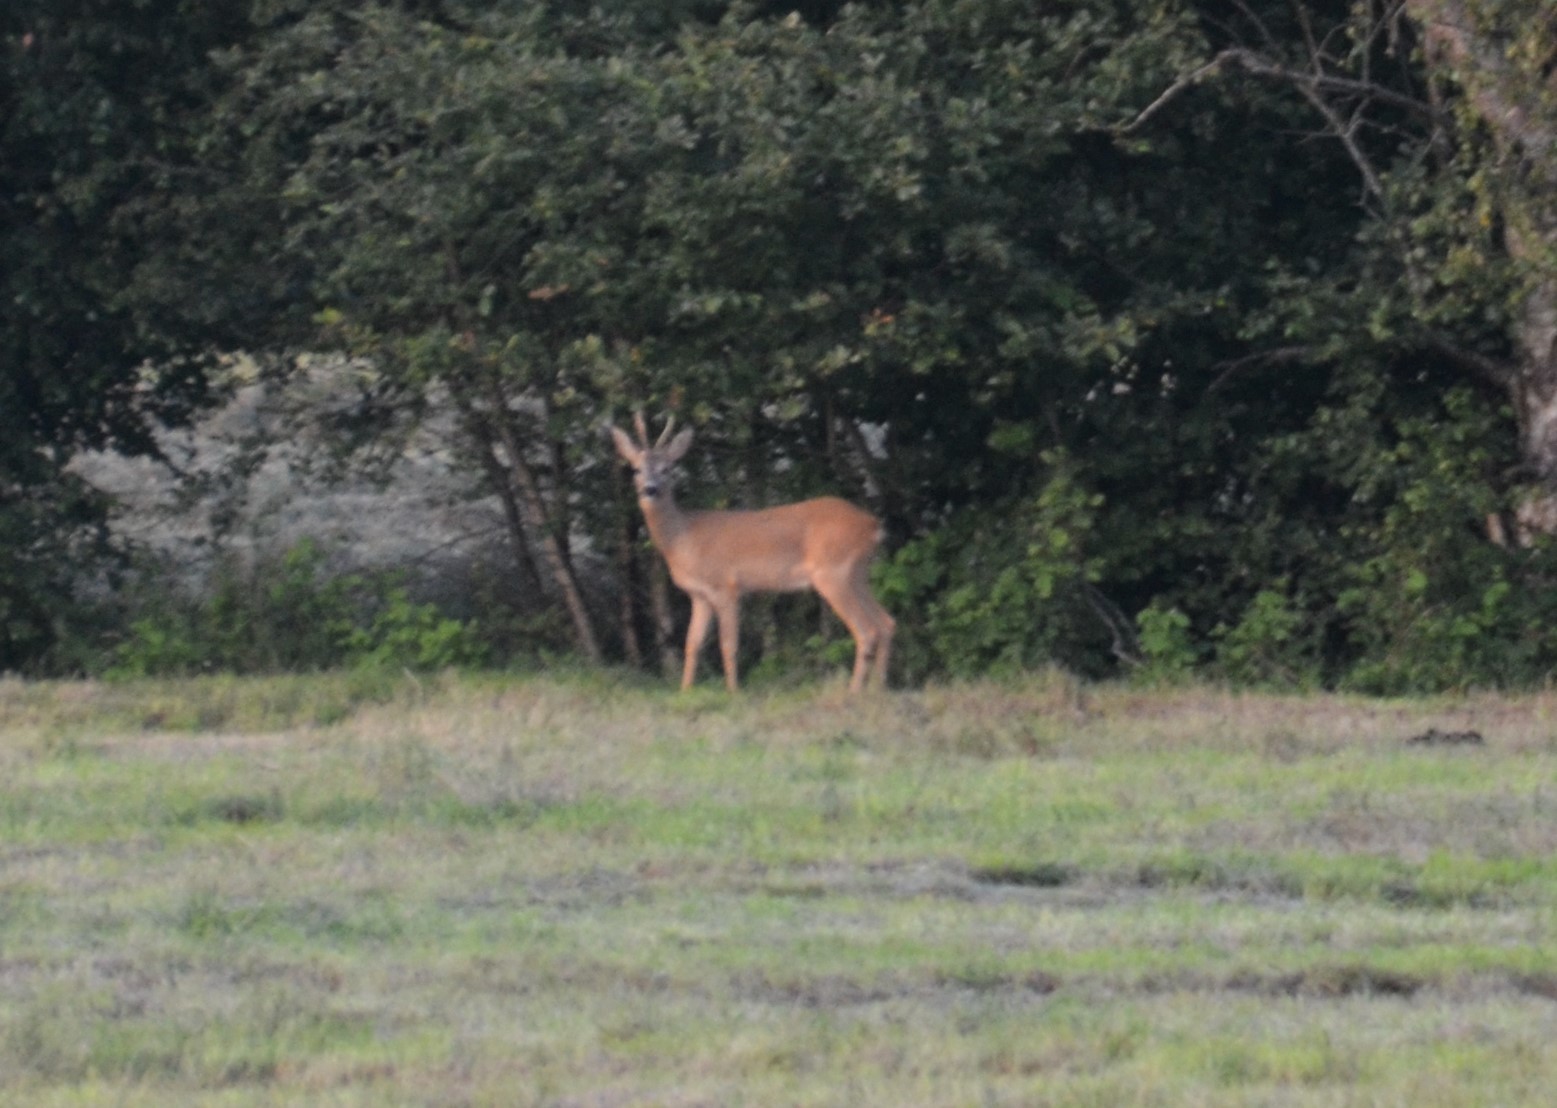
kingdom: Animalia
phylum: Chordata
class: Mammalia
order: Artiodactyla
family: Cervidae
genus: Capreolus
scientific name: Capreolus capreolus
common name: Western roe deer
